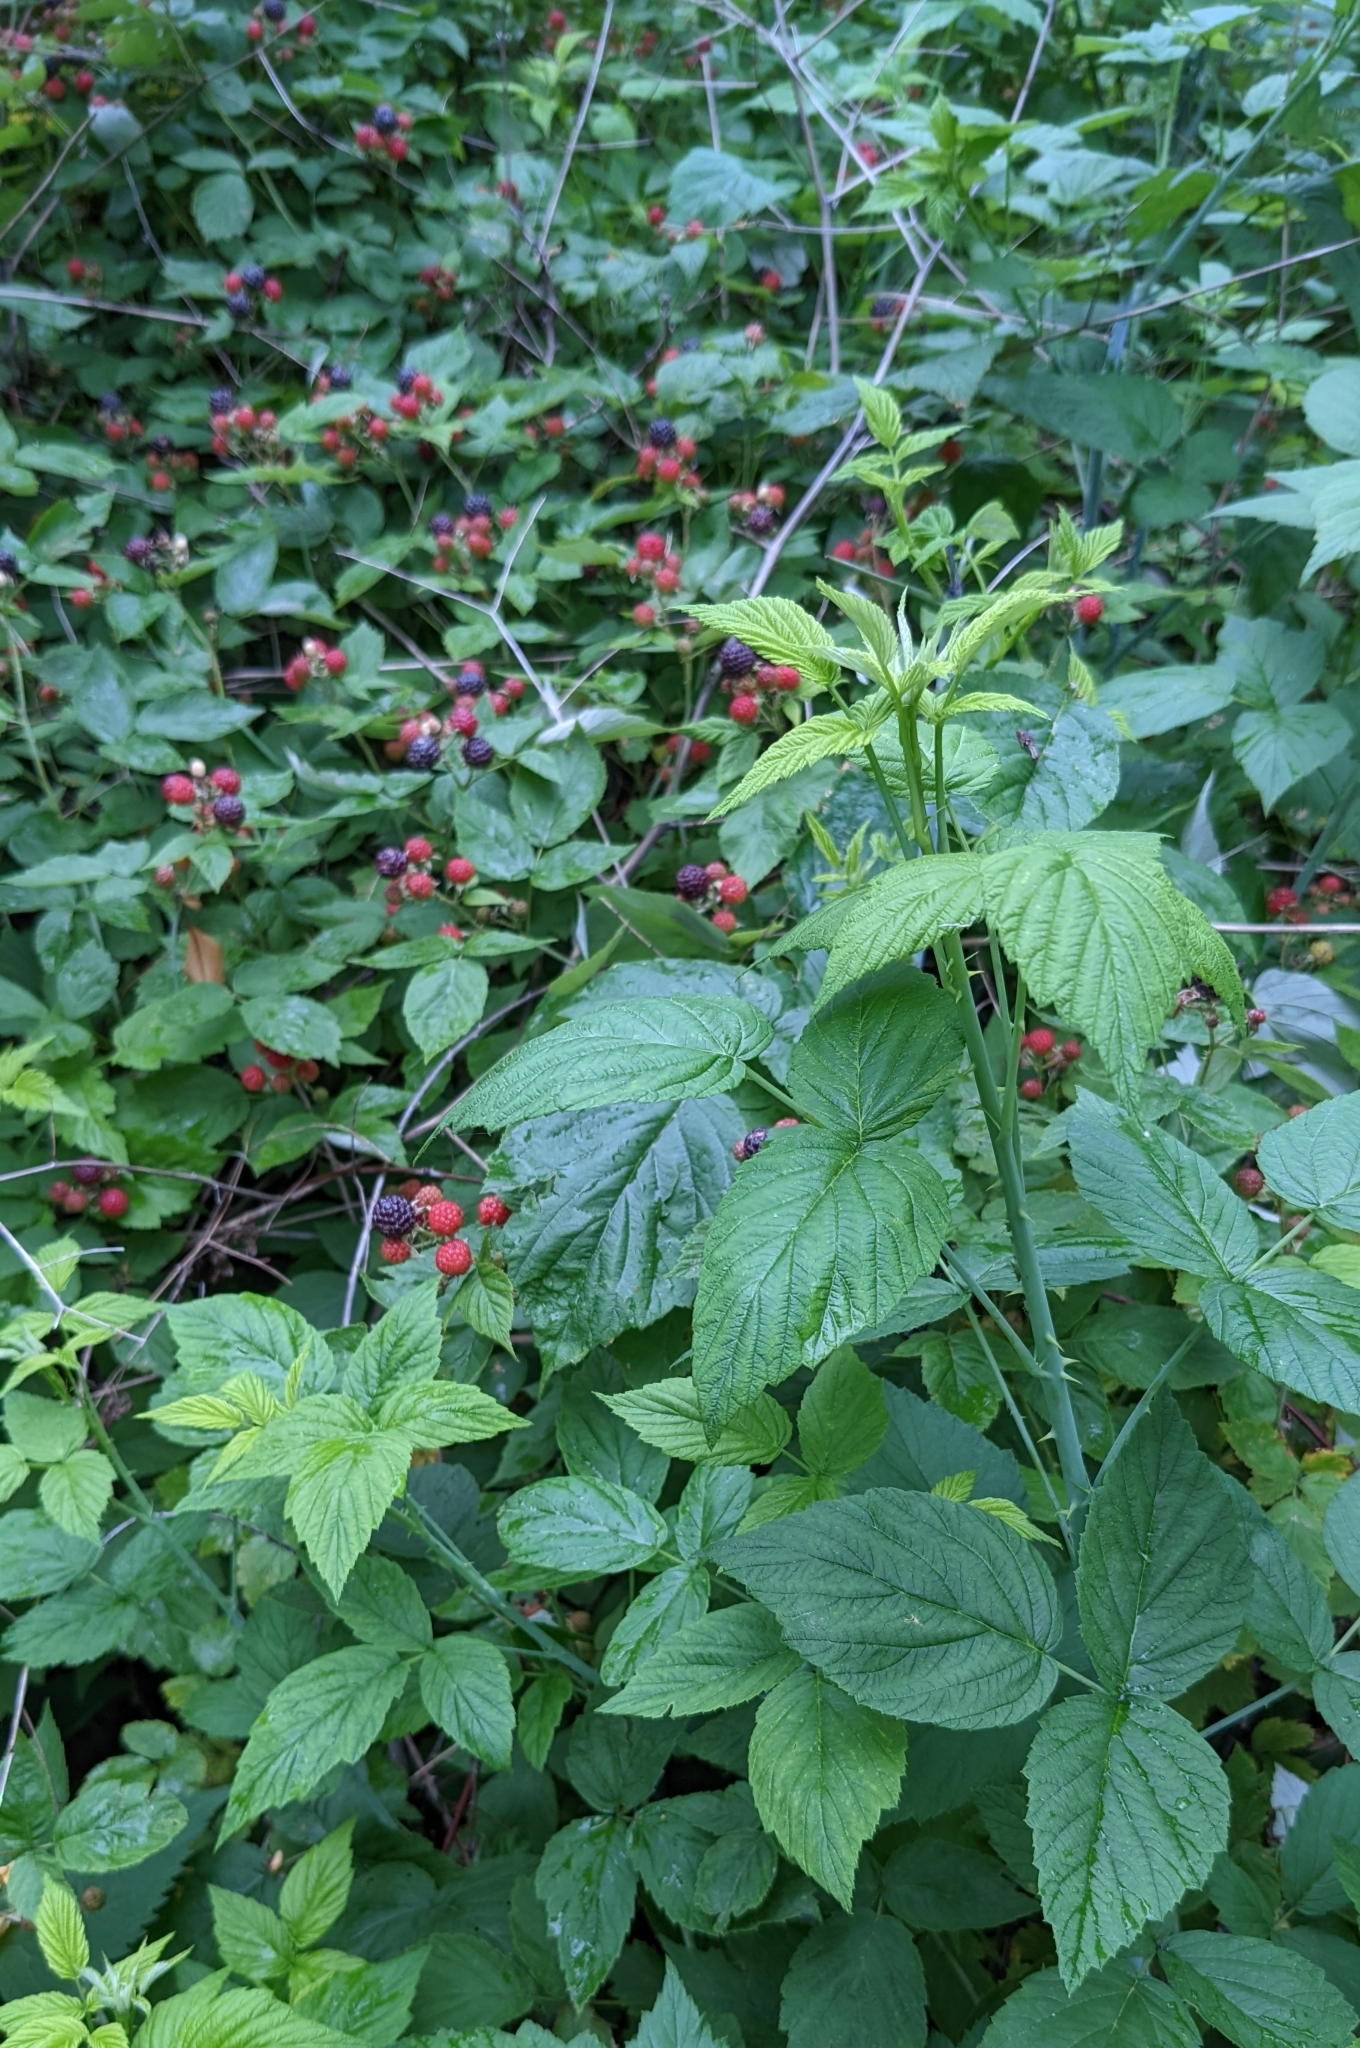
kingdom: Plantae
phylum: Tracheophyta
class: Magnoliopsida
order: Rosales
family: Rosaceae
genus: Rubus
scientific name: Rubus occidentalis
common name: Black raspberry
